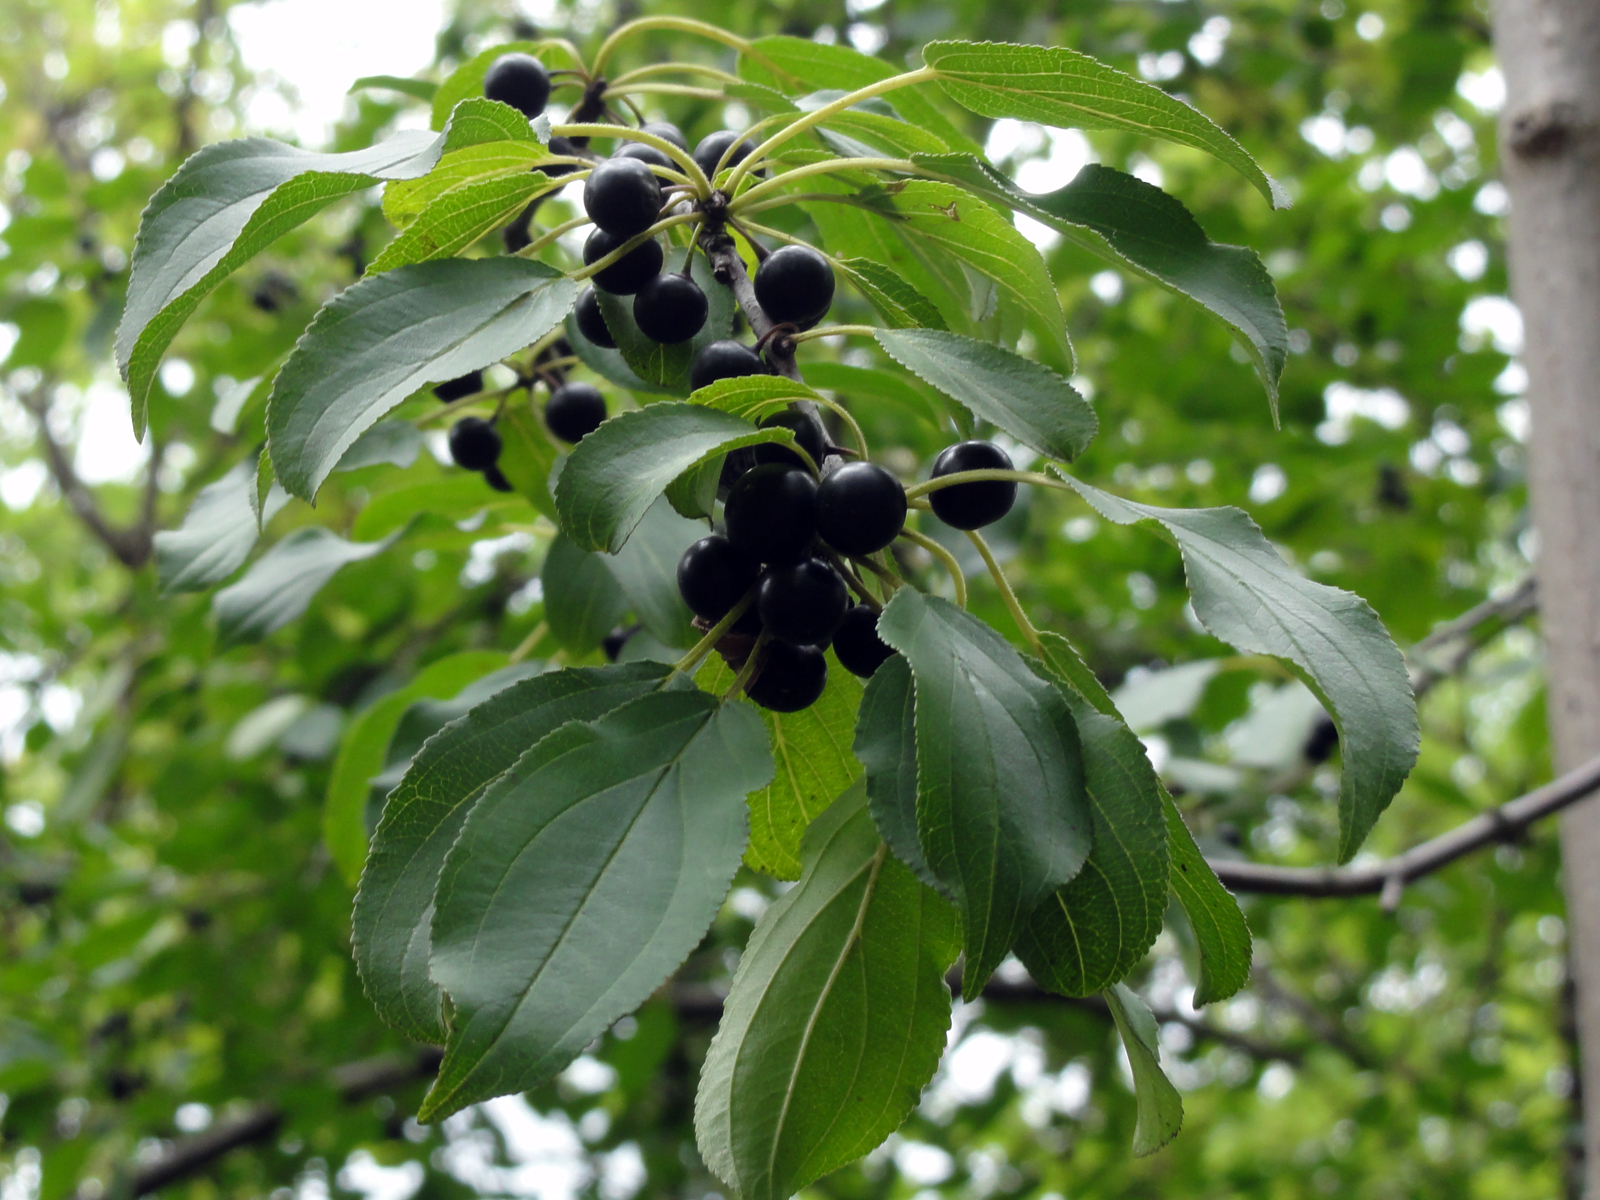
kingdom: Plantae
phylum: Tracheophyta
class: Magnoliopsida
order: Rosales
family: Rhamnaceae
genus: Rhamnus
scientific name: Rhamnus cathartica
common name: Common buckthorn
